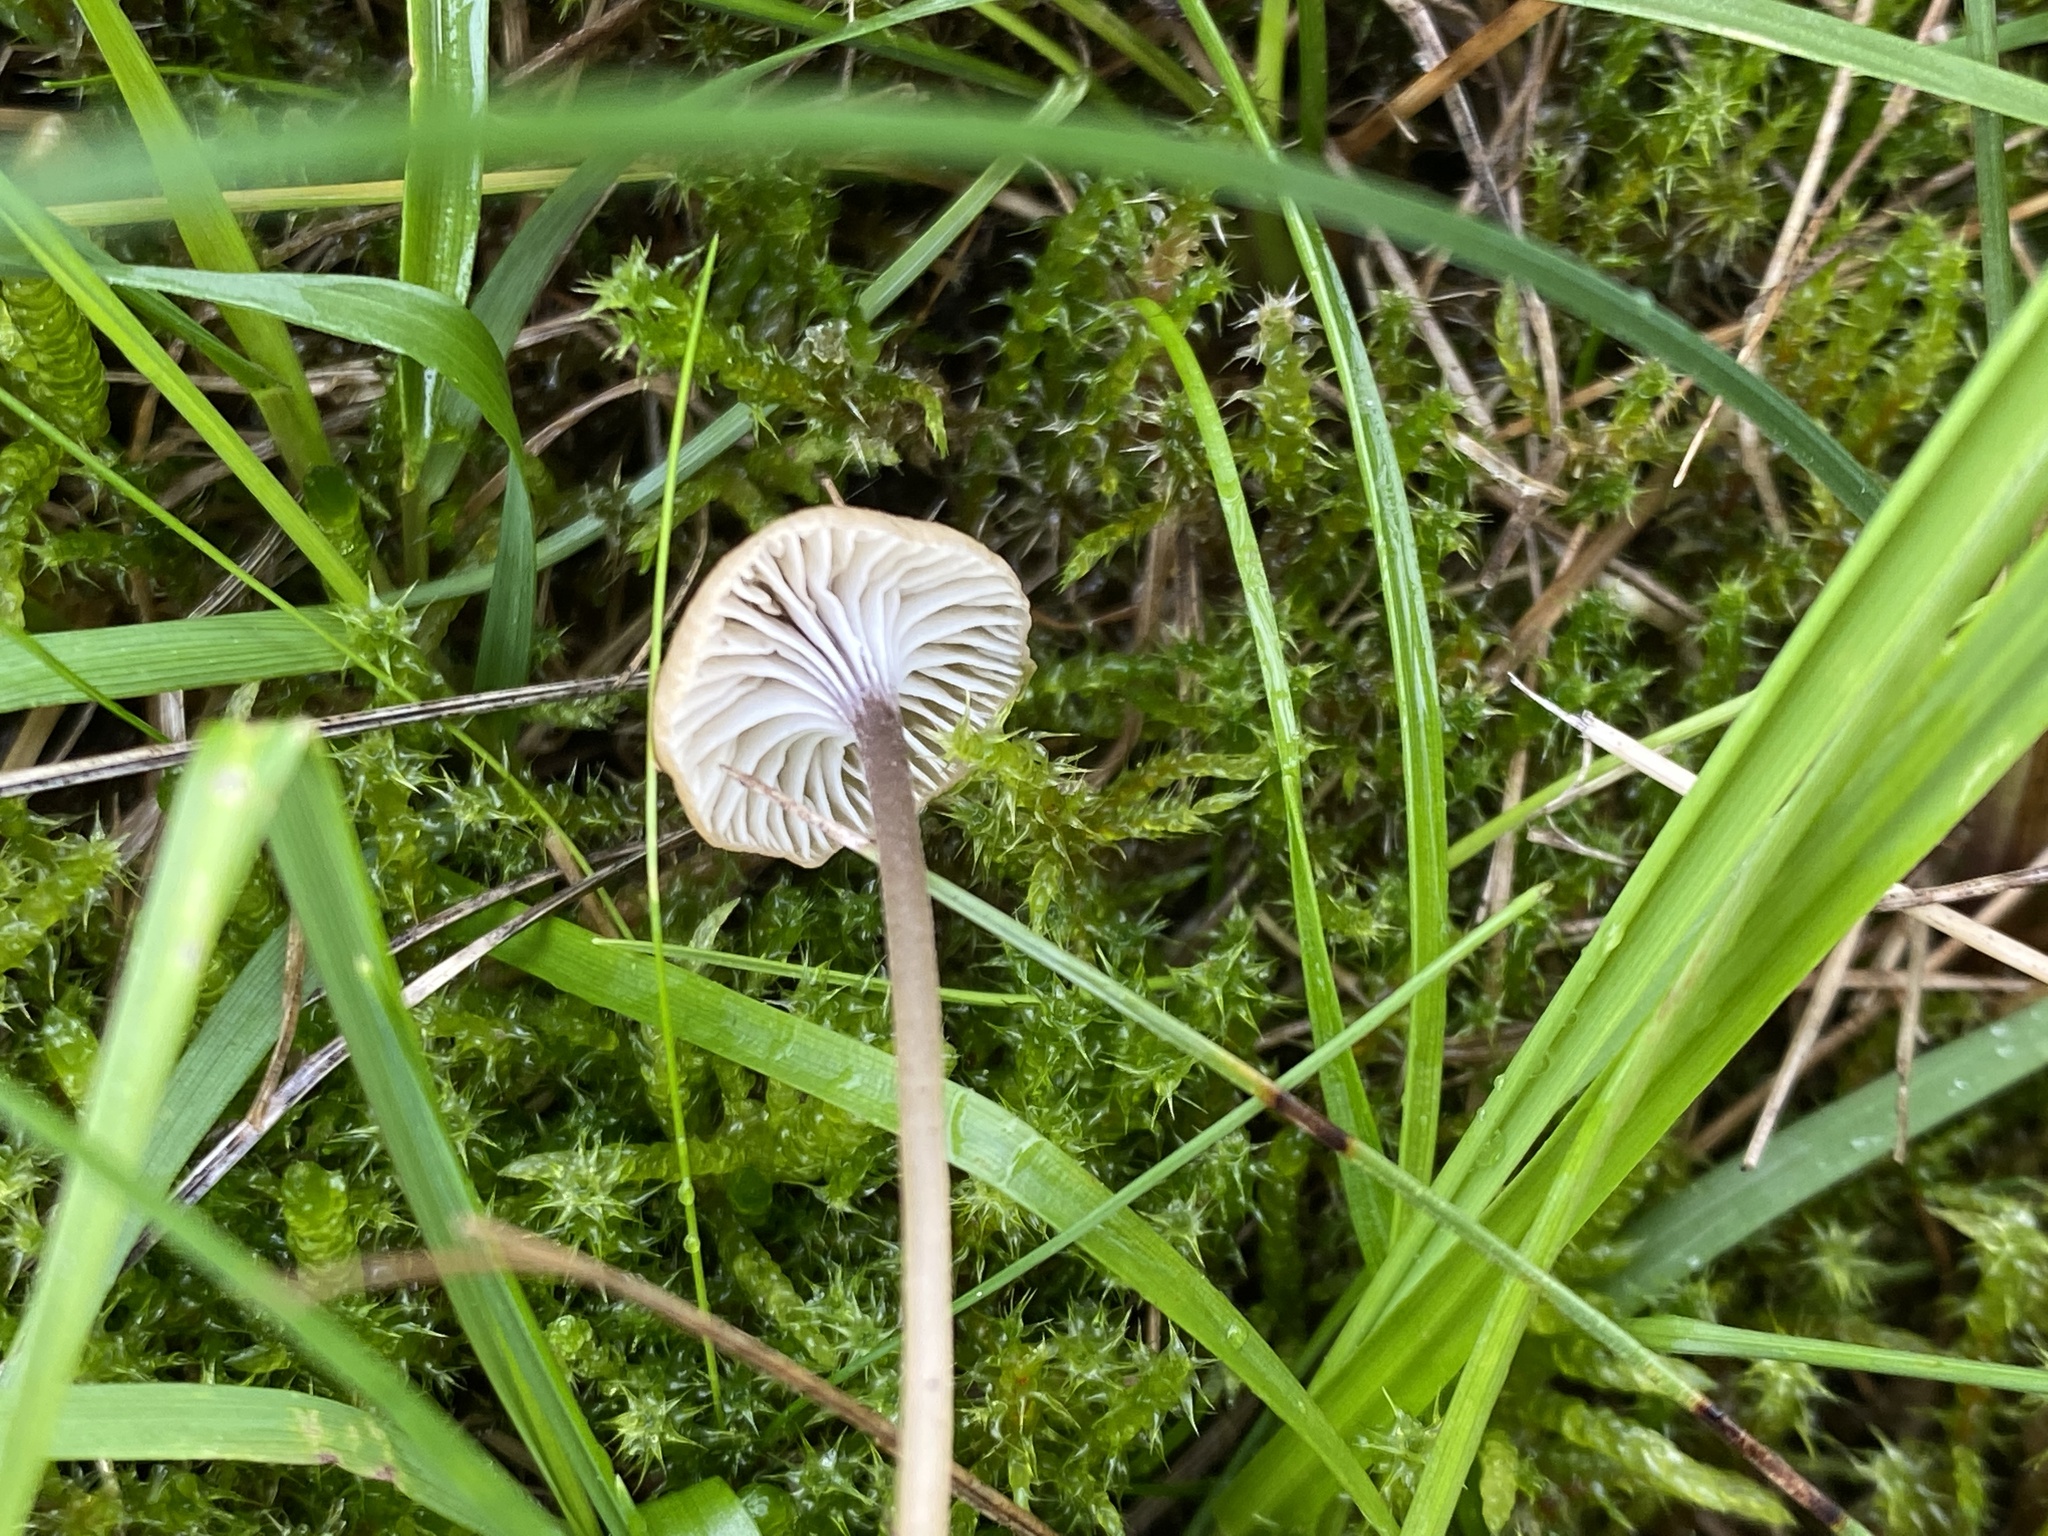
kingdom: Fungi
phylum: Basidiomycota
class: Agaricomycetes
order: Hymenochaetales
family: Rickenellaceae
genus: Rickenella
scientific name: Rickenella swartzii
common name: Collared mosscap
